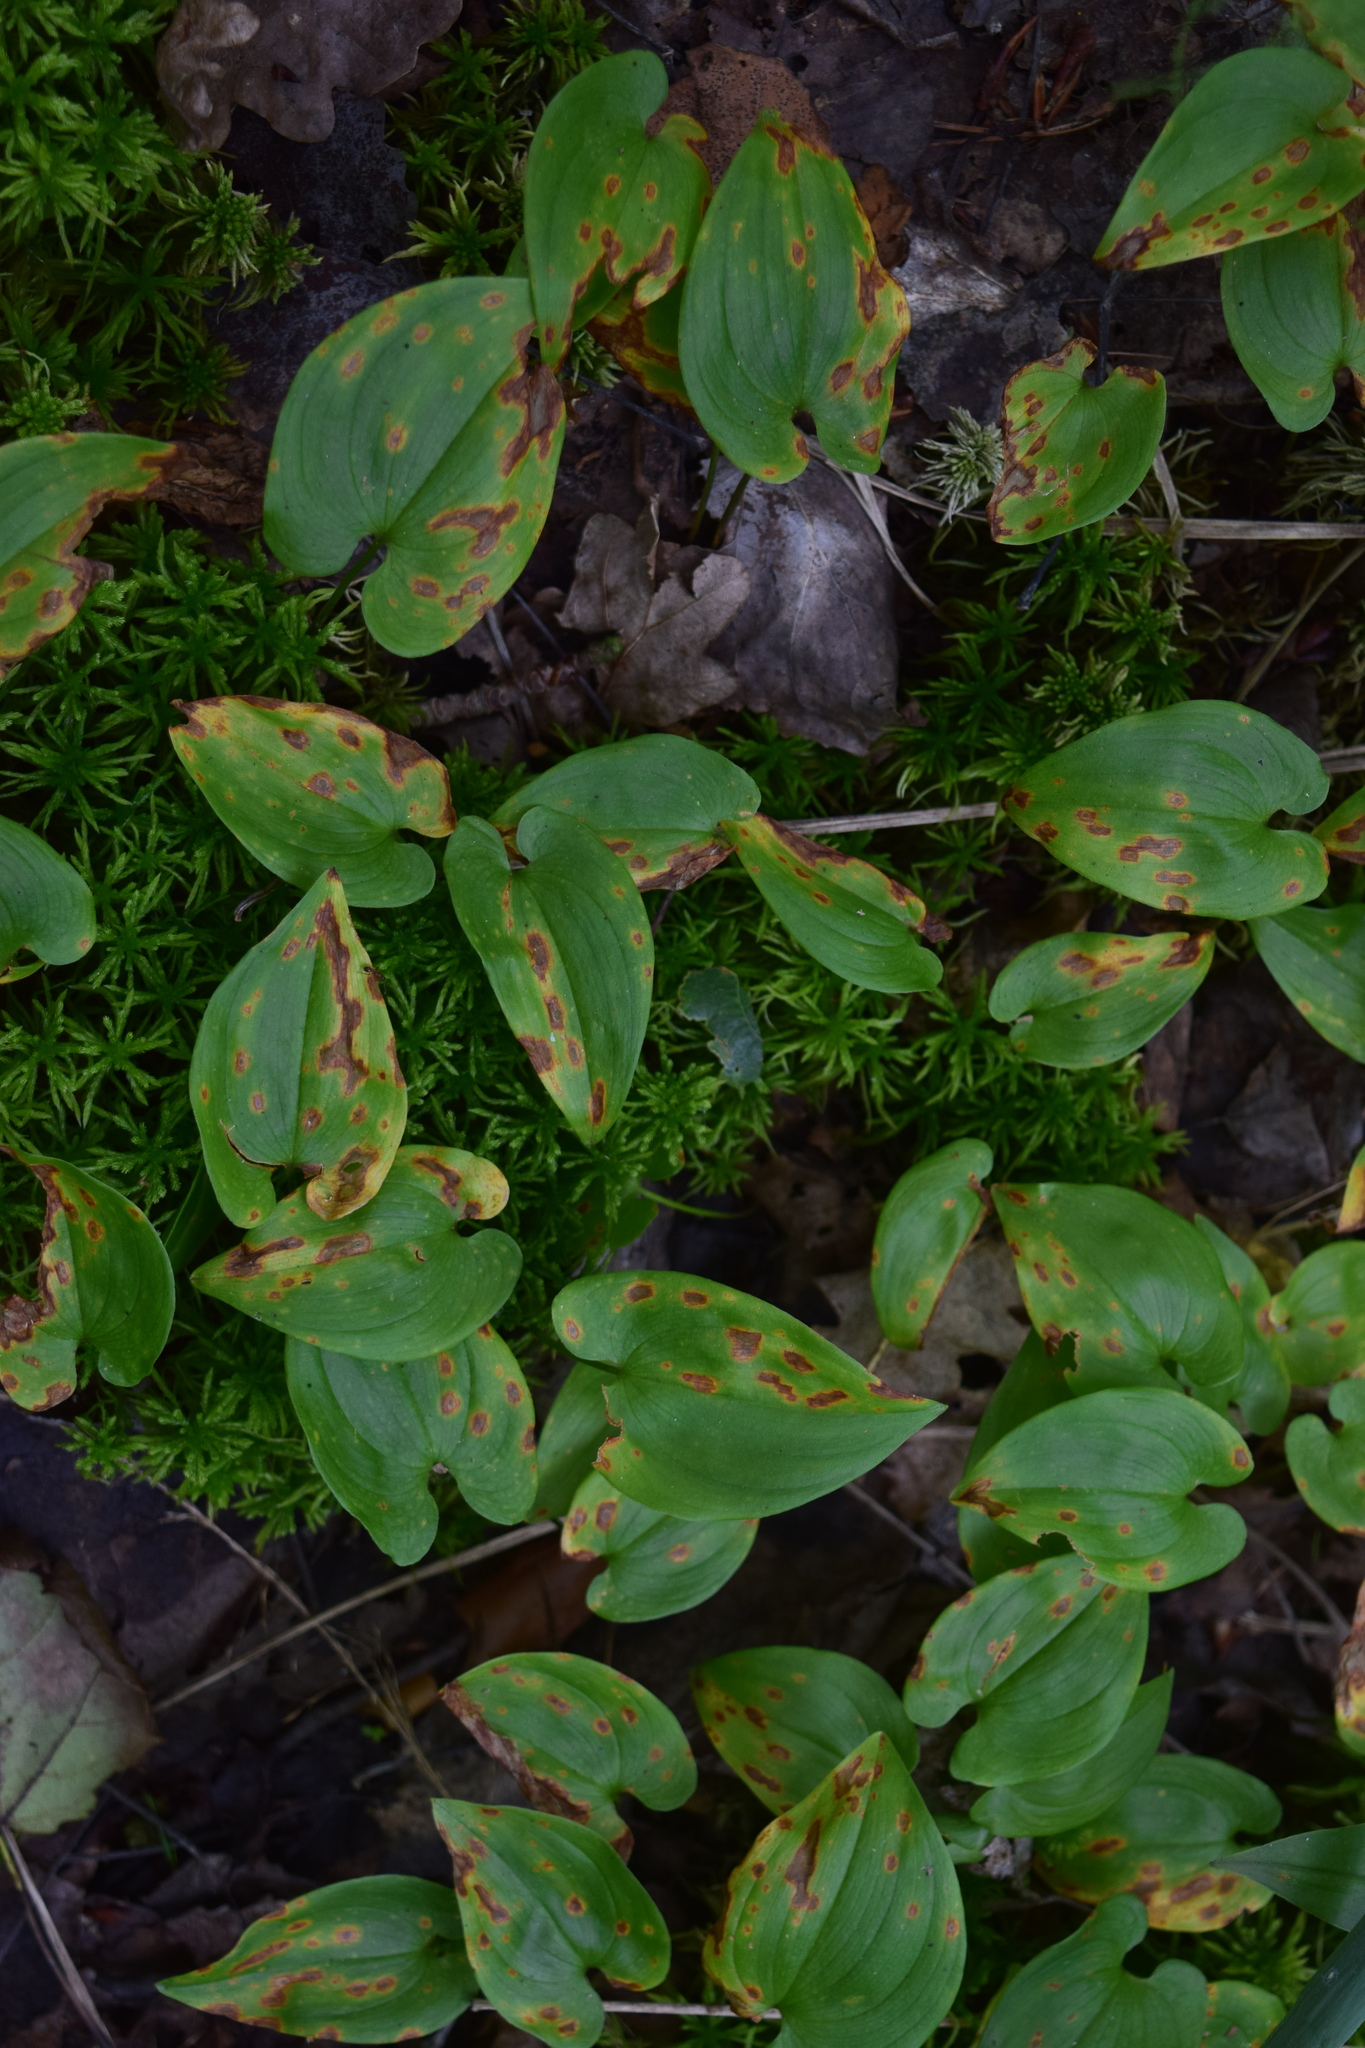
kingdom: Plantae
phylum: Tracheophyta
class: Liliopsida
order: Asparagales
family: Asparagaceae
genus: Maianthemum
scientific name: Maianthemum bifolium
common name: May lily
